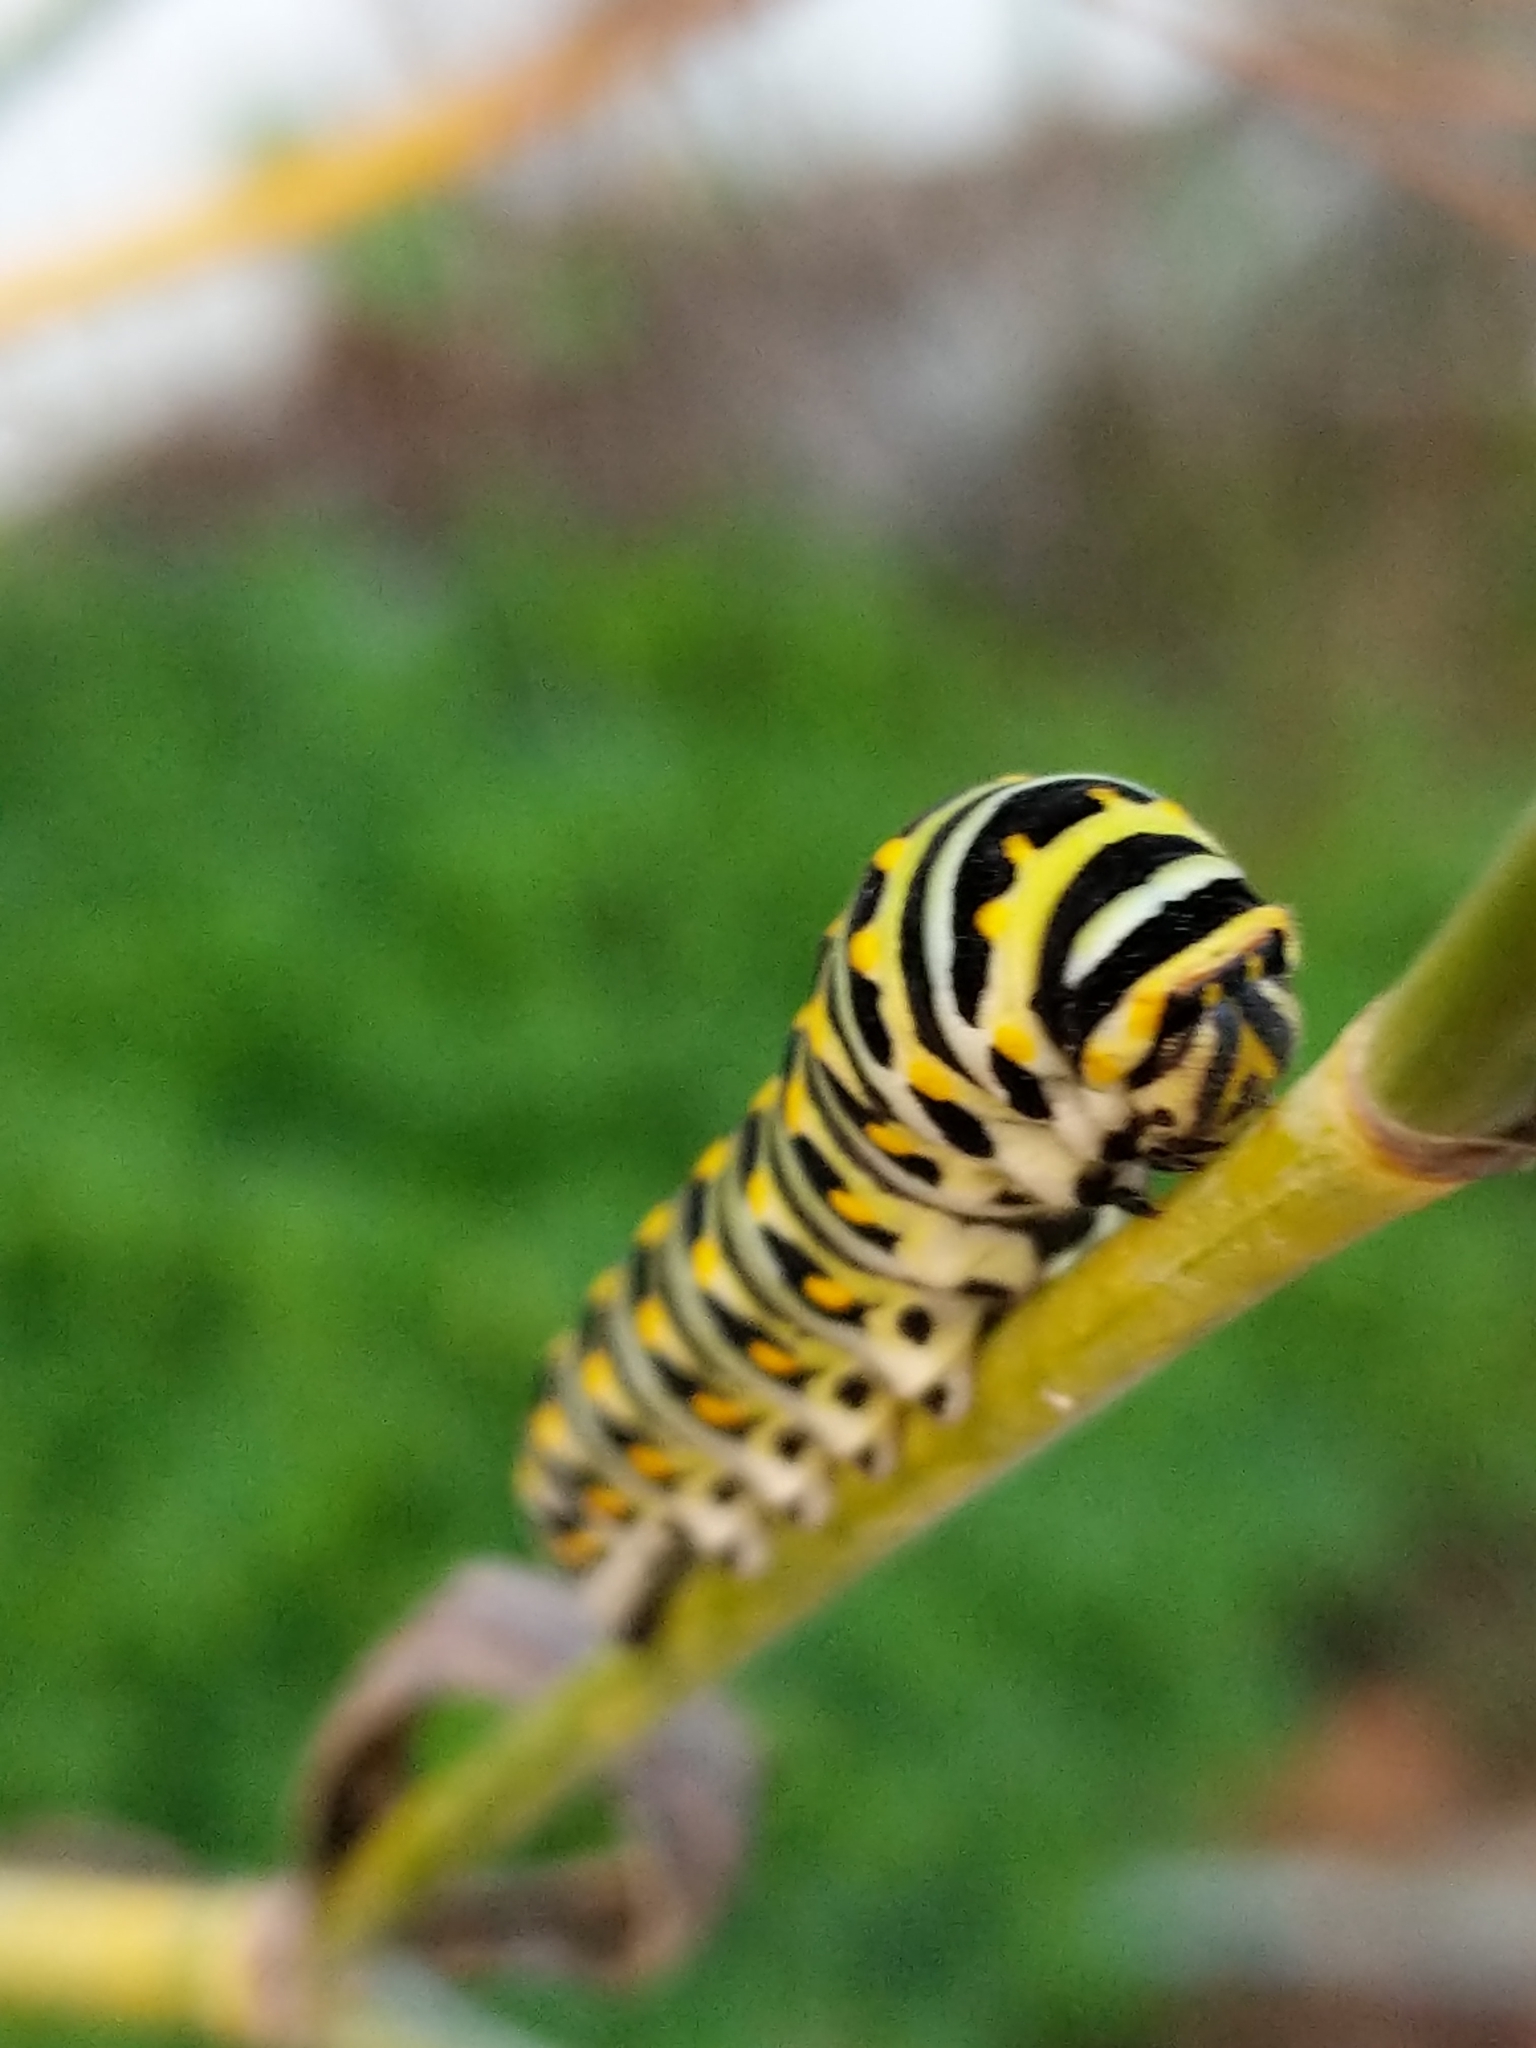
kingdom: Animalia
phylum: Arthropoda
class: Insecta
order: Lepidoptera
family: Papilionidae
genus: Papilio
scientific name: Papilio zelicaon
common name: Anise swallowtail
